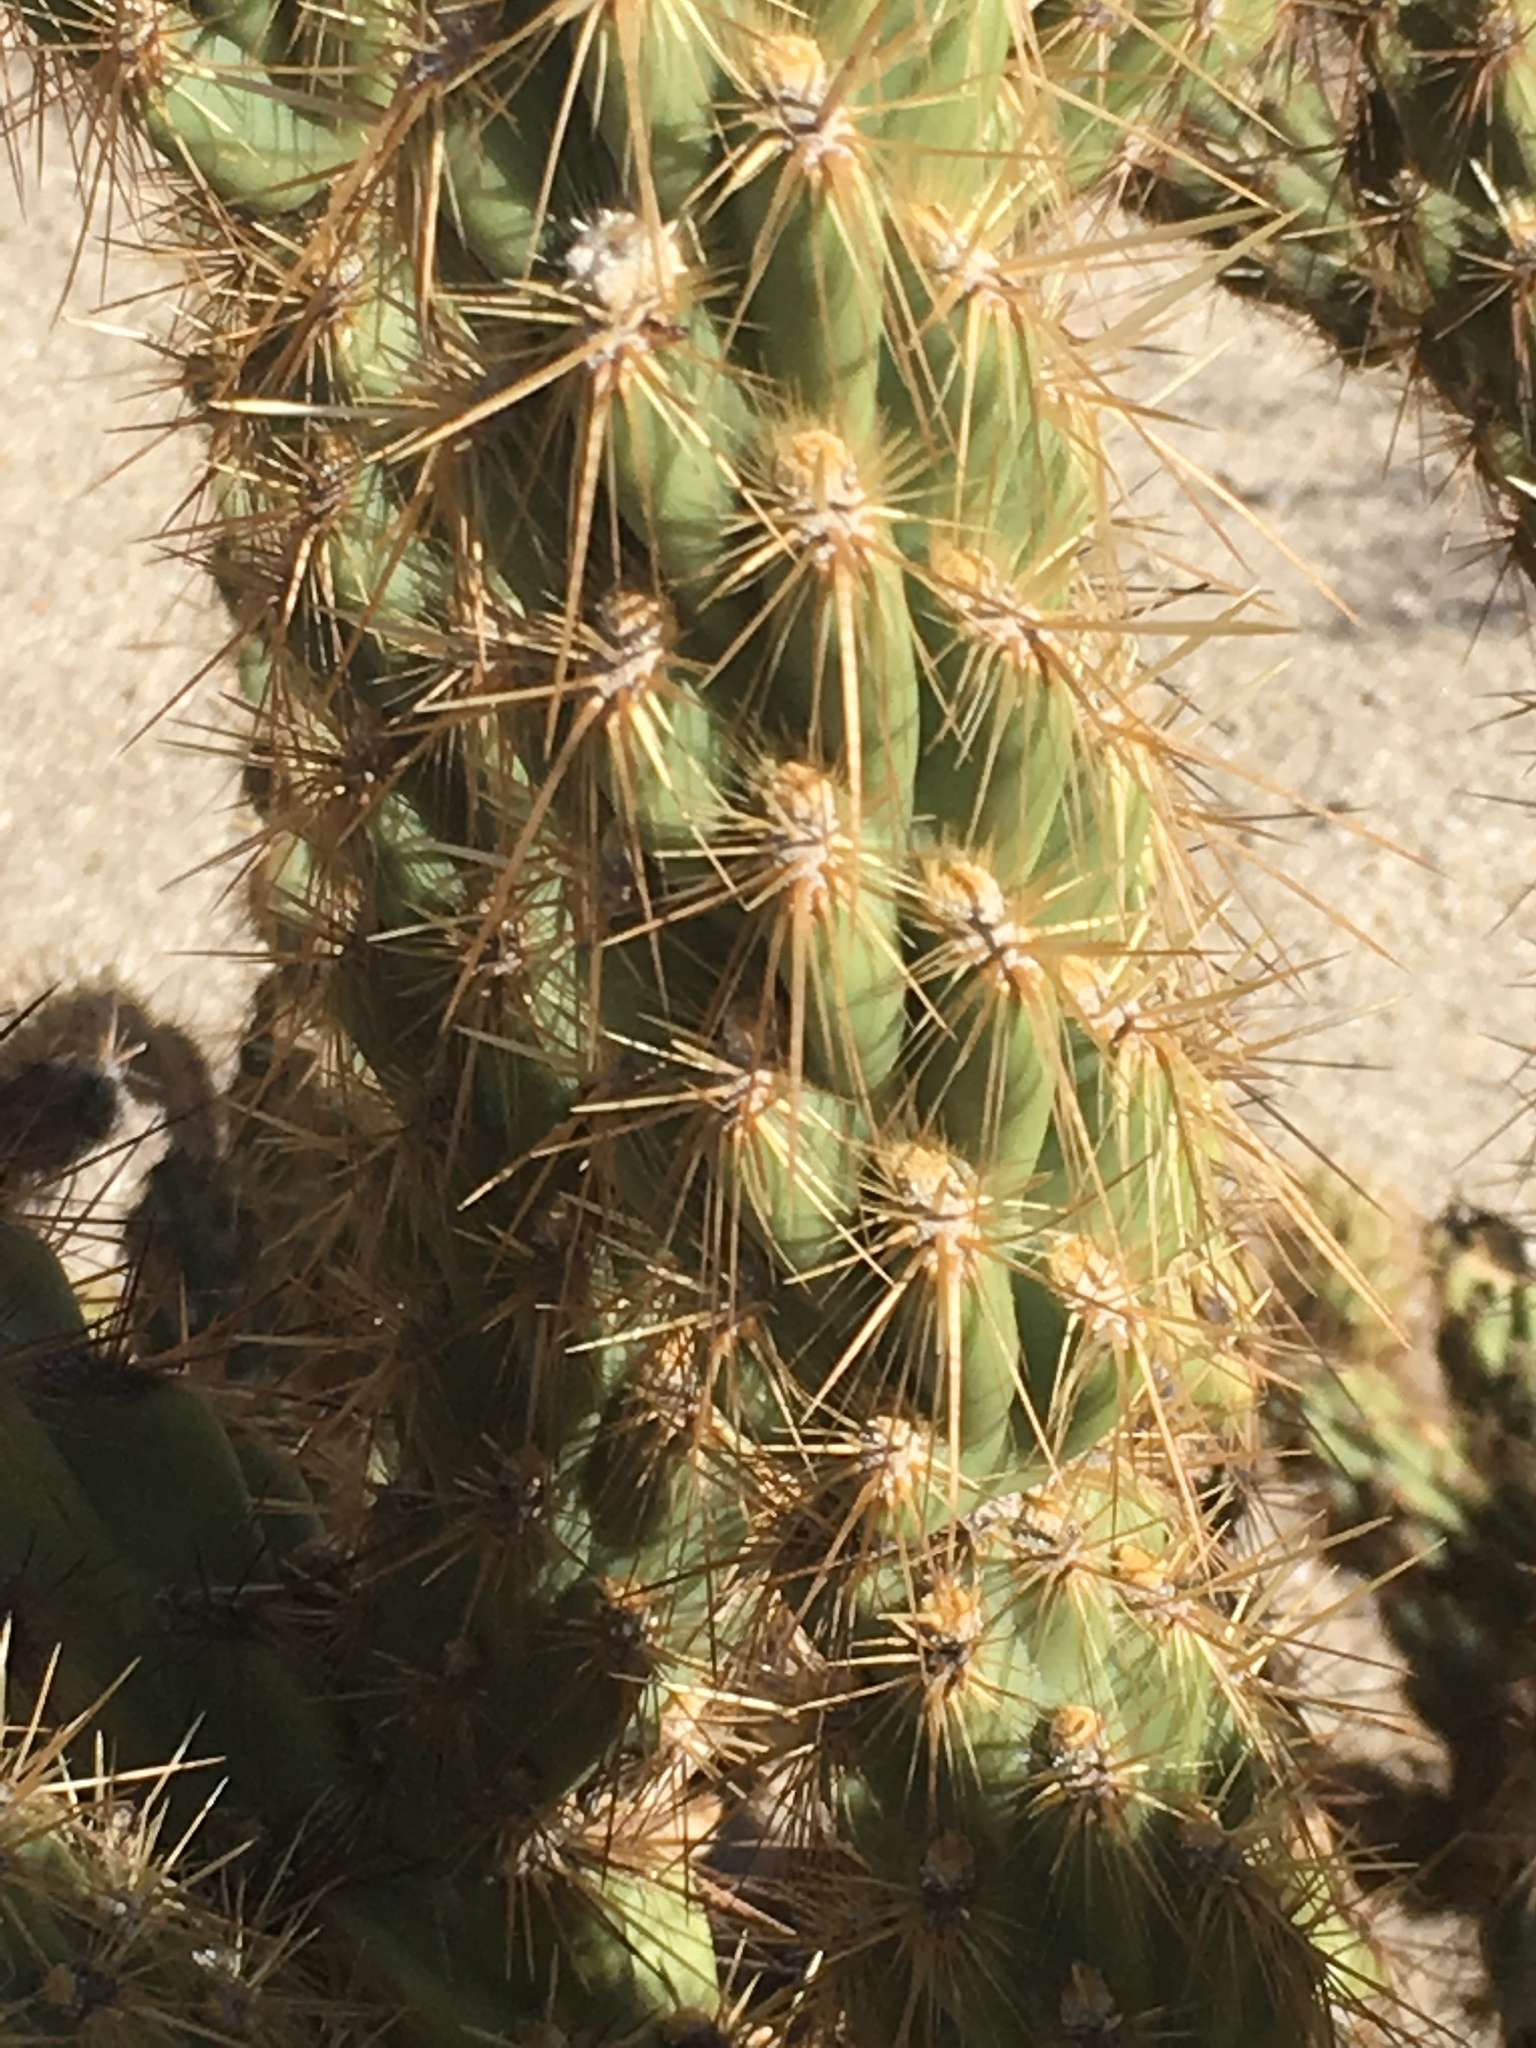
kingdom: Plantae
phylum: Tracheophyta
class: Magnoliopsida
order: Caryophyllales
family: Cactaceae
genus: Cylindropuntia
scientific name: Cylindropuntia ganderi
